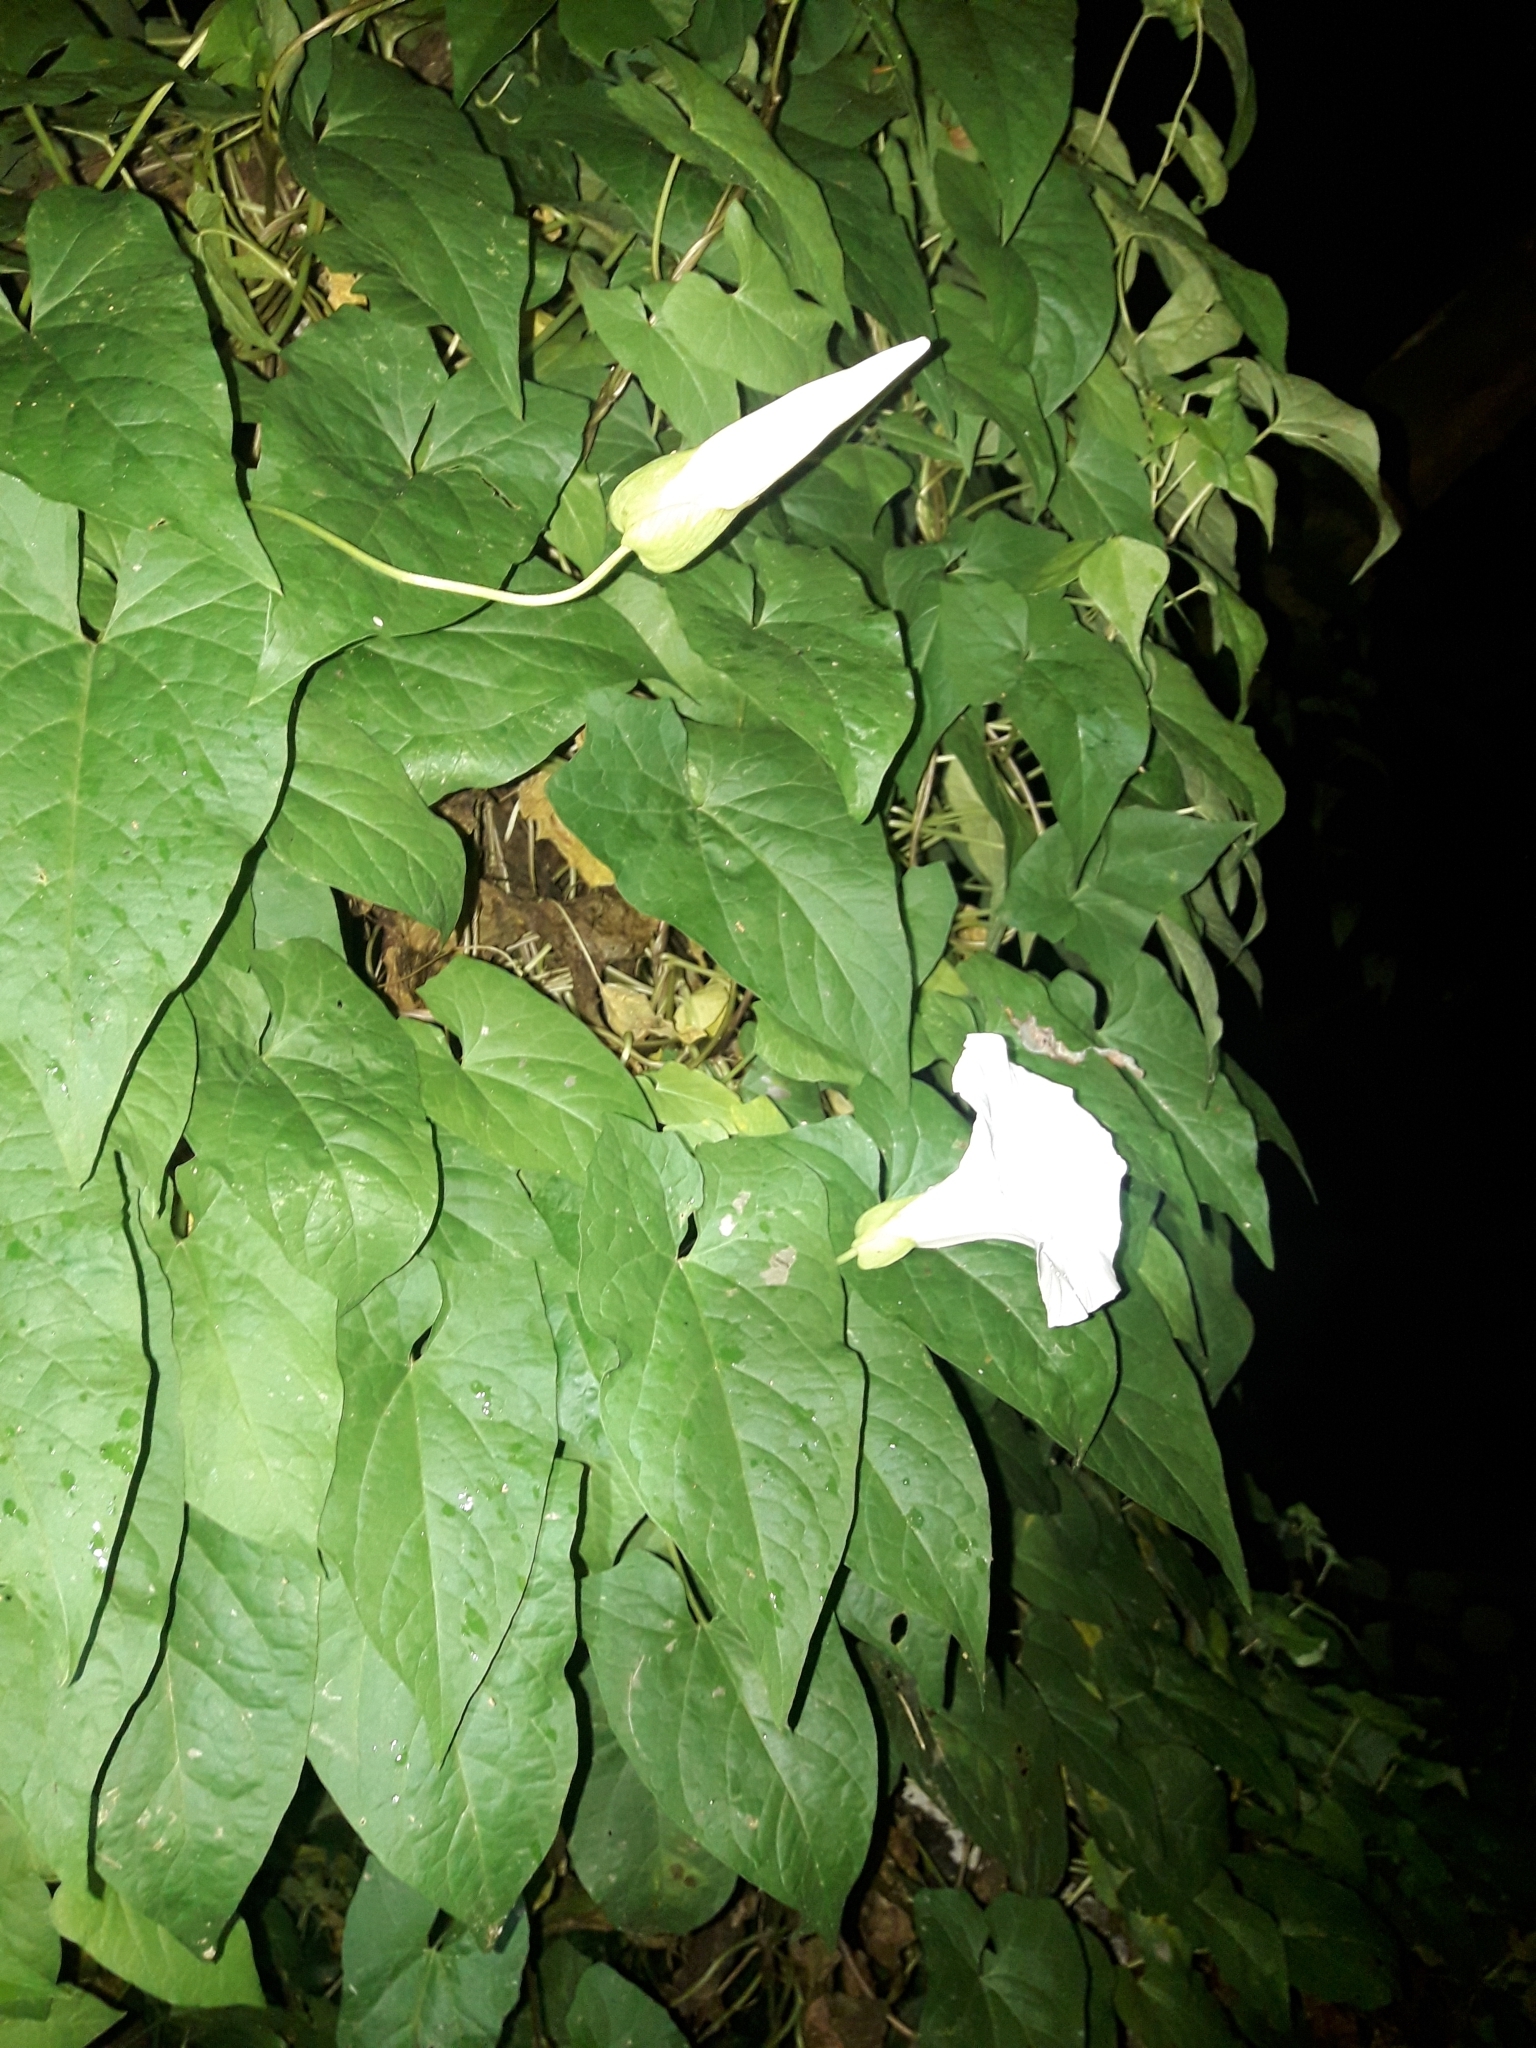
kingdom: Plantae
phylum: Tracheophyta
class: Magnoliopsida
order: Solanales
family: Convolvulaceae
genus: Calystegia
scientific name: Calystegia silvatica
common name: Large bindweed
